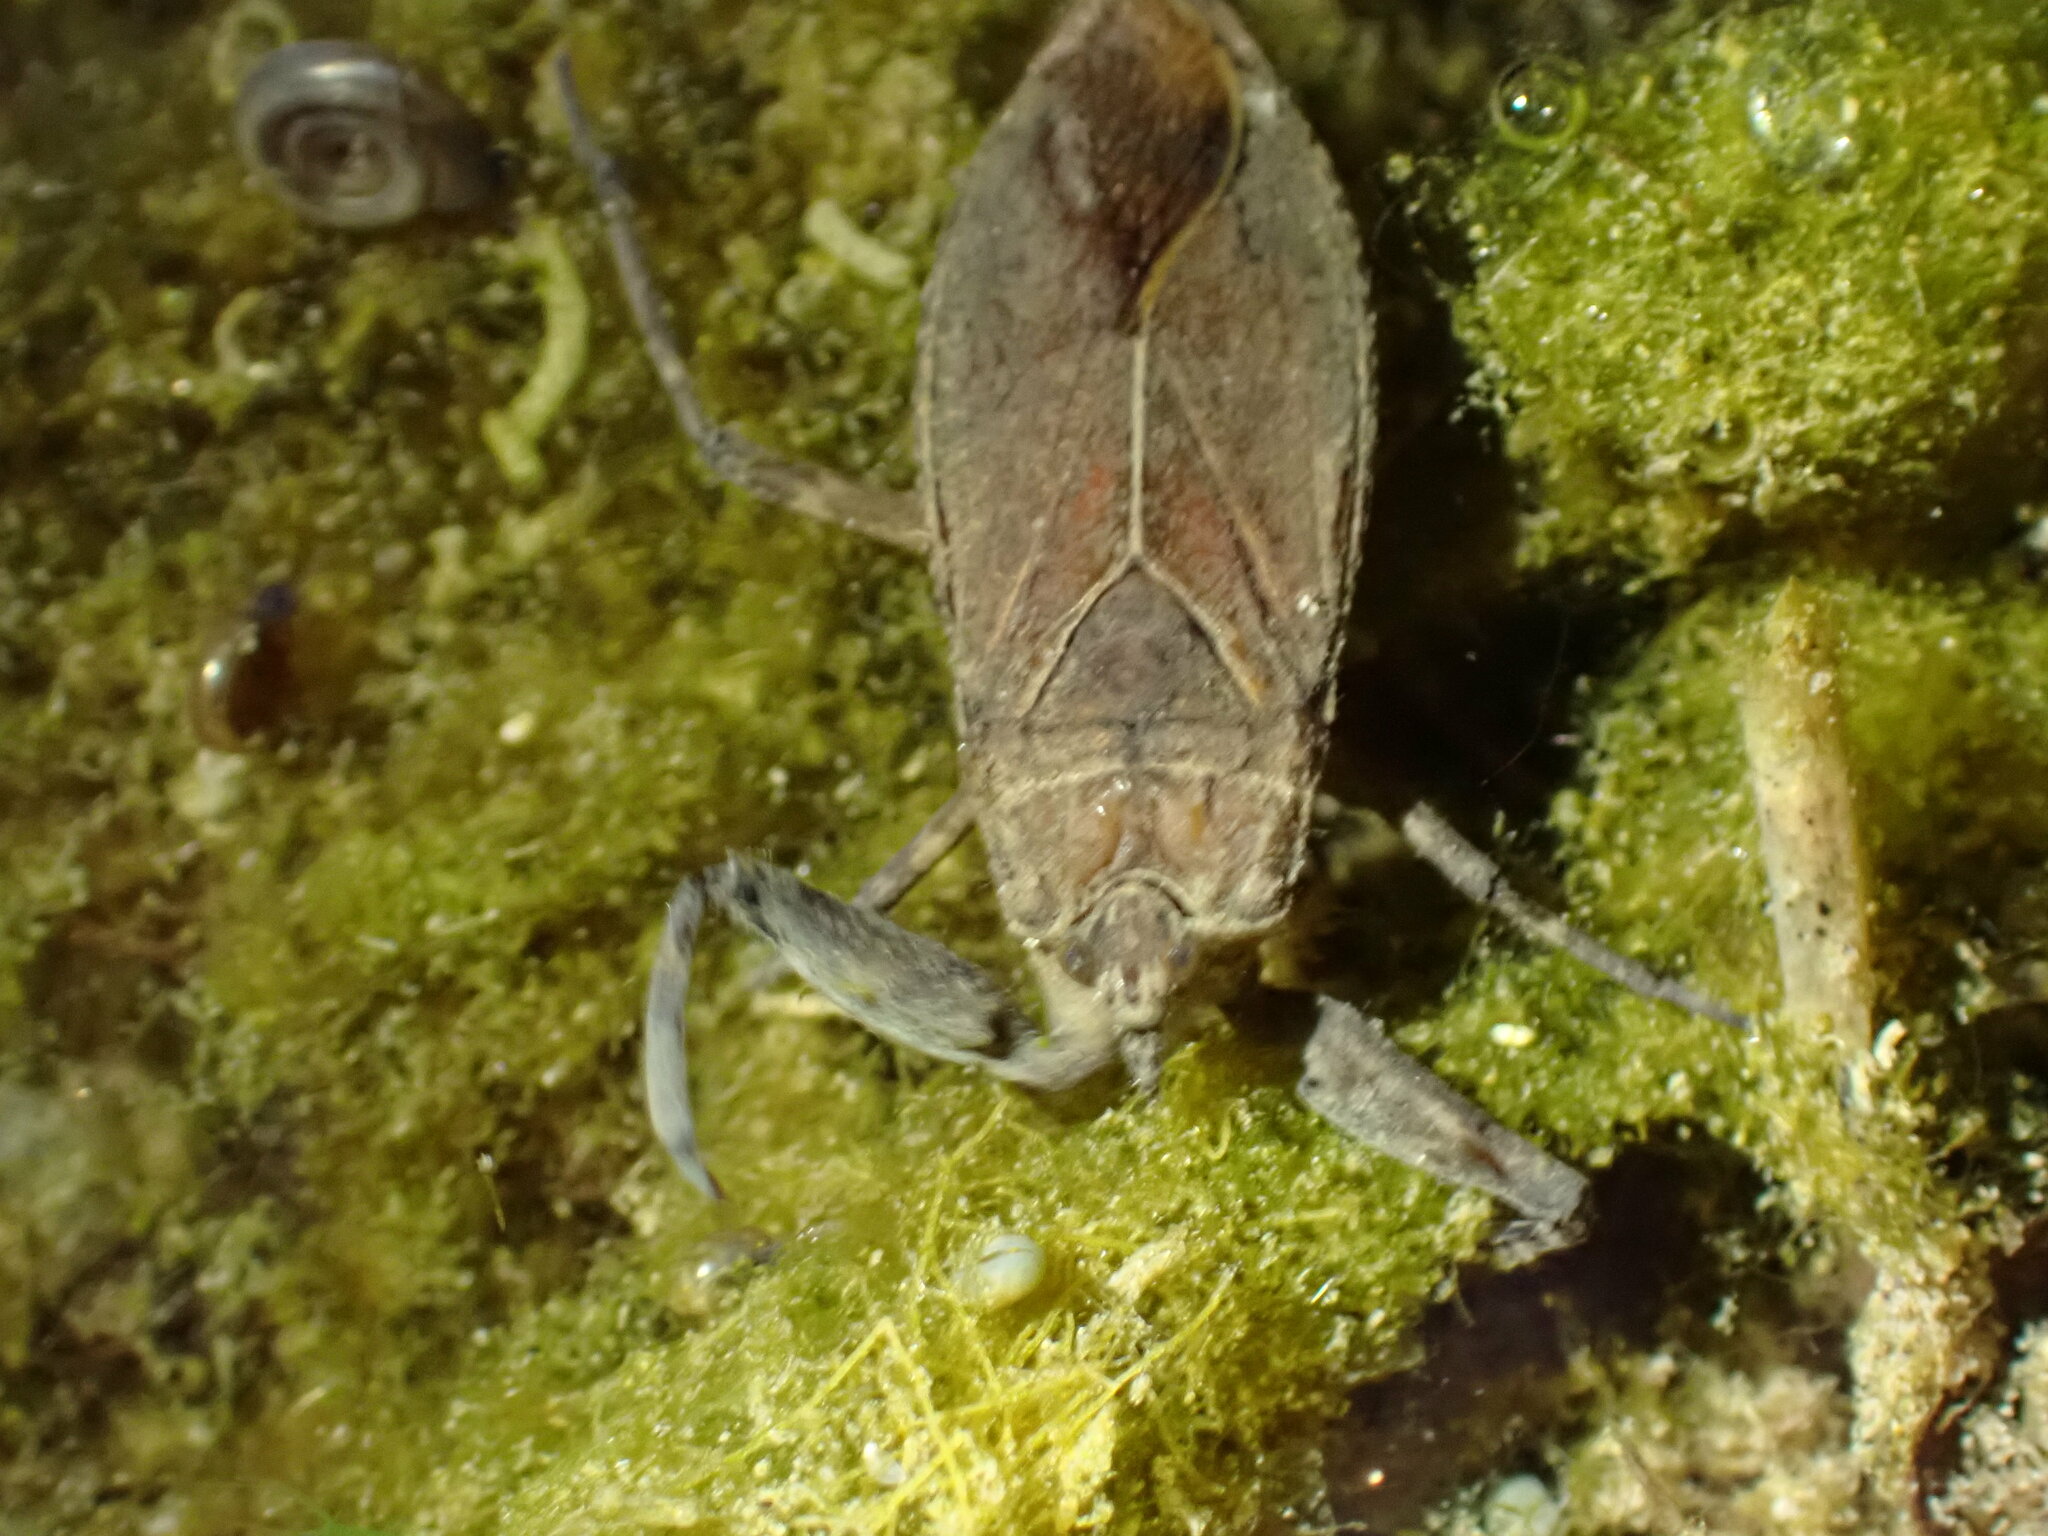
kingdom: Animalia
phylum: Arthropoda
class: Insecta
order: Hemiptera
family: Nepidae
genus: Nepa
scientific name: Nepa cinerea
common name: Water scorpion
